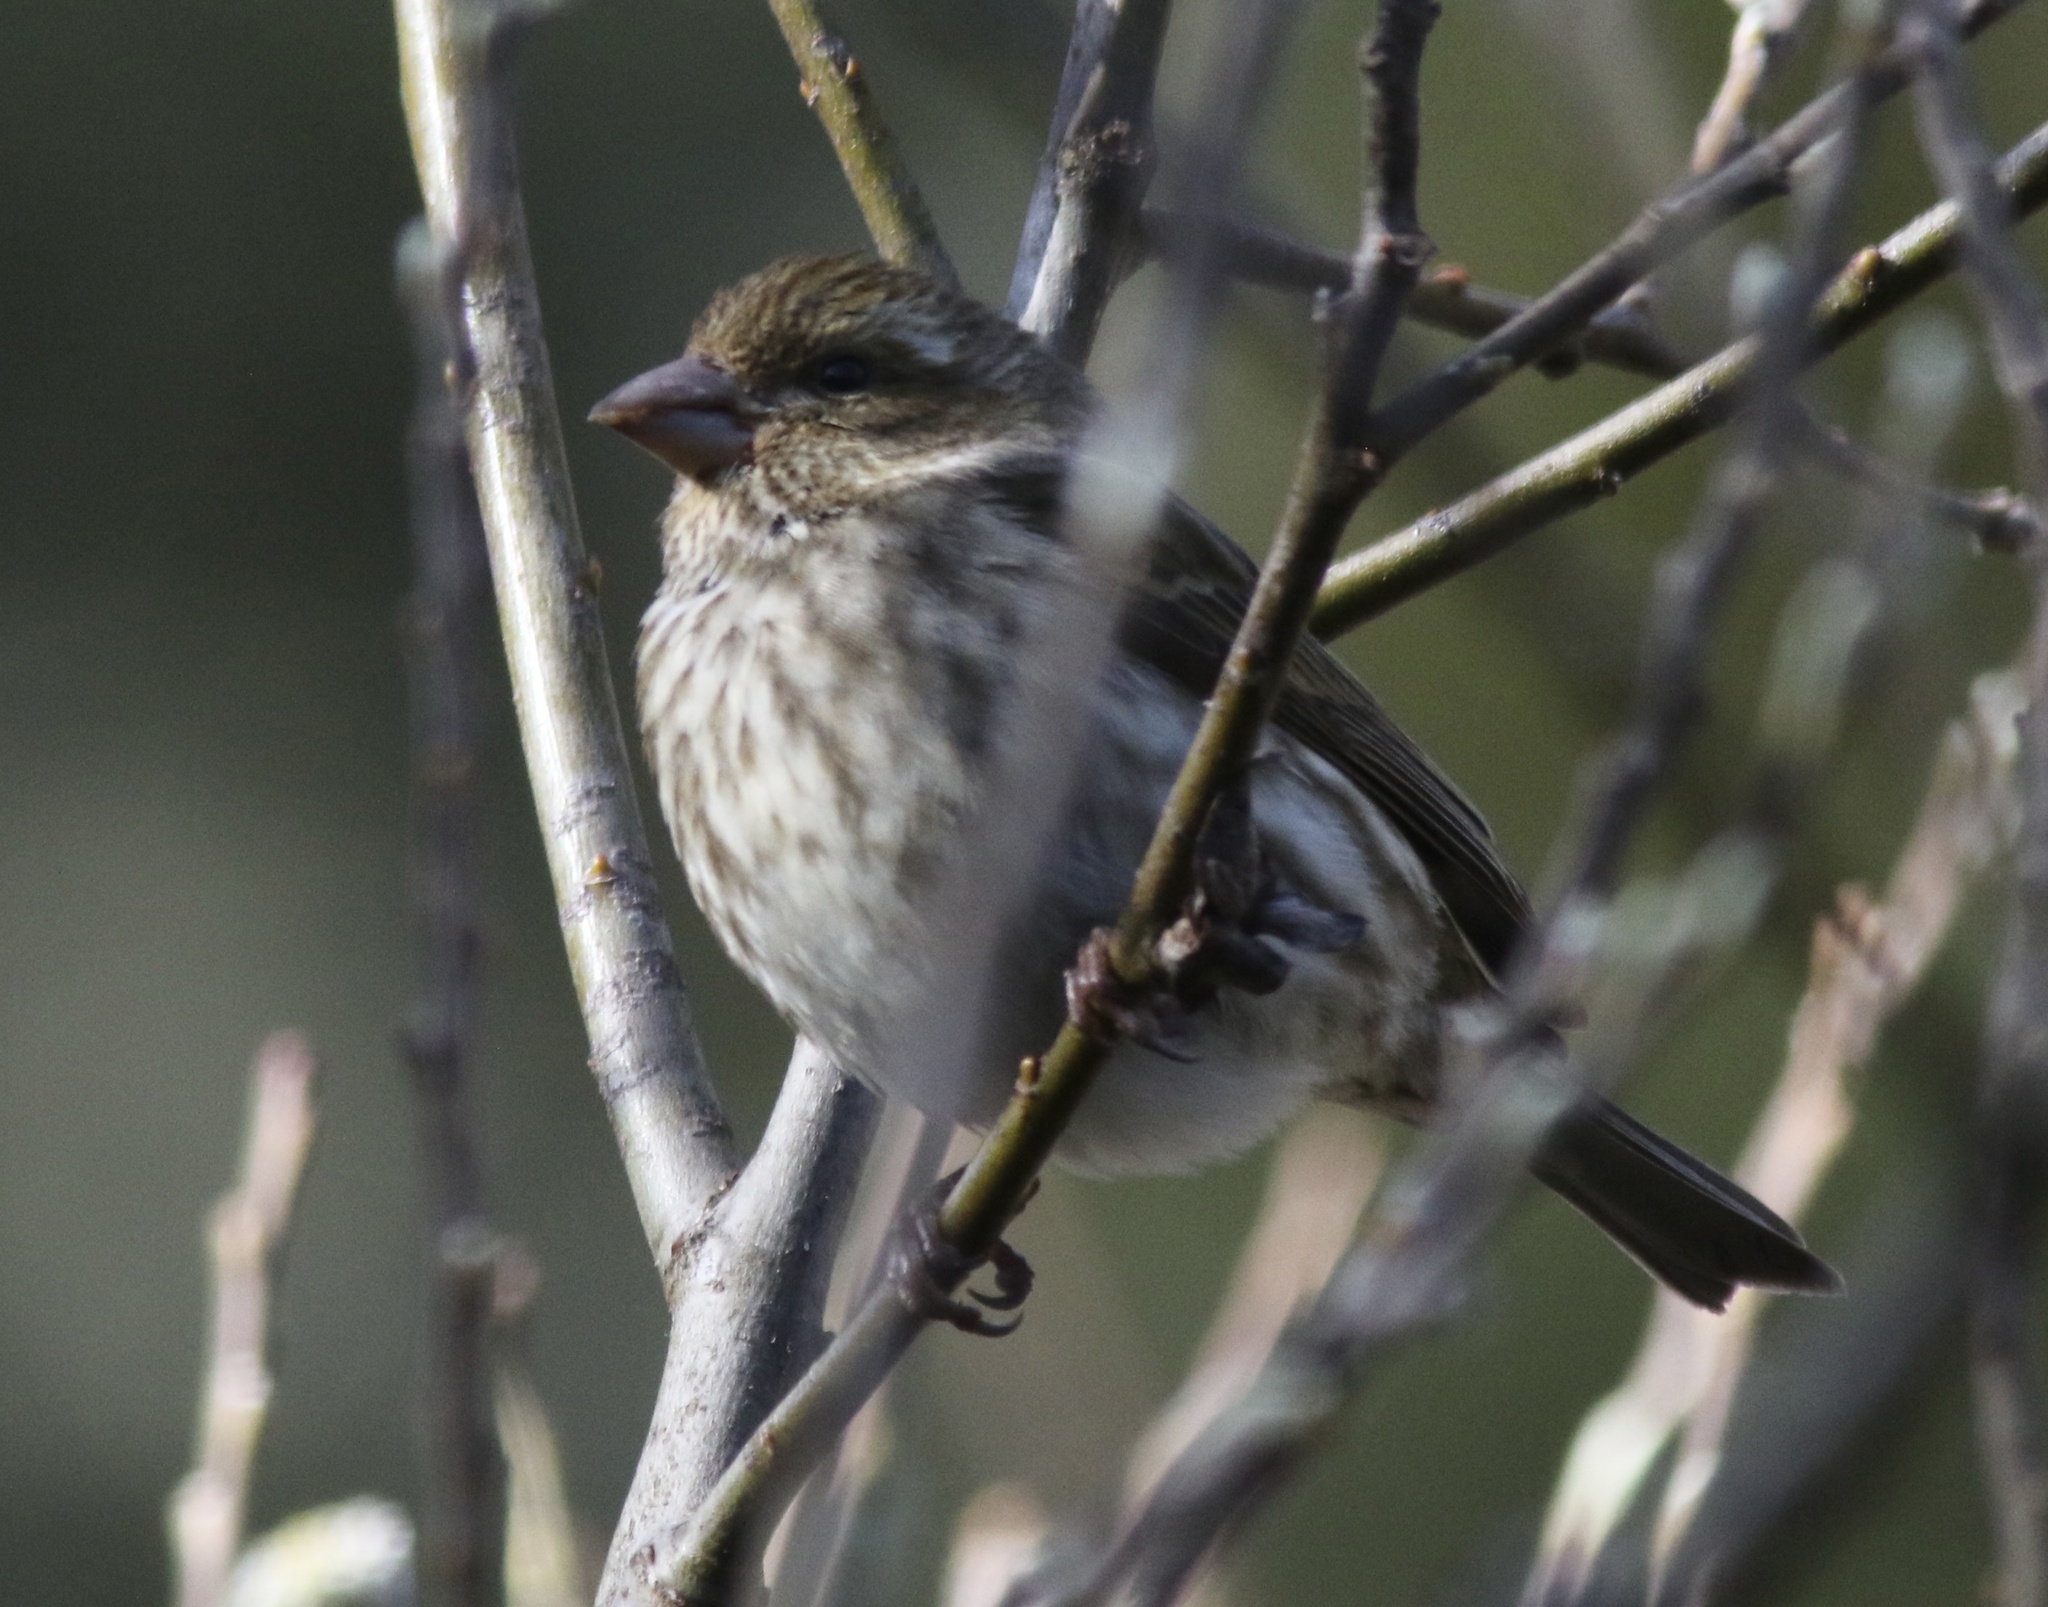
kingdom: Animalia
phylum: Chordata
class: Aves
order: Passeriformes
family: Fringillidae
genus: Haemorhous
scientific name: Haemorhous purpureus
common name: Purple finch
